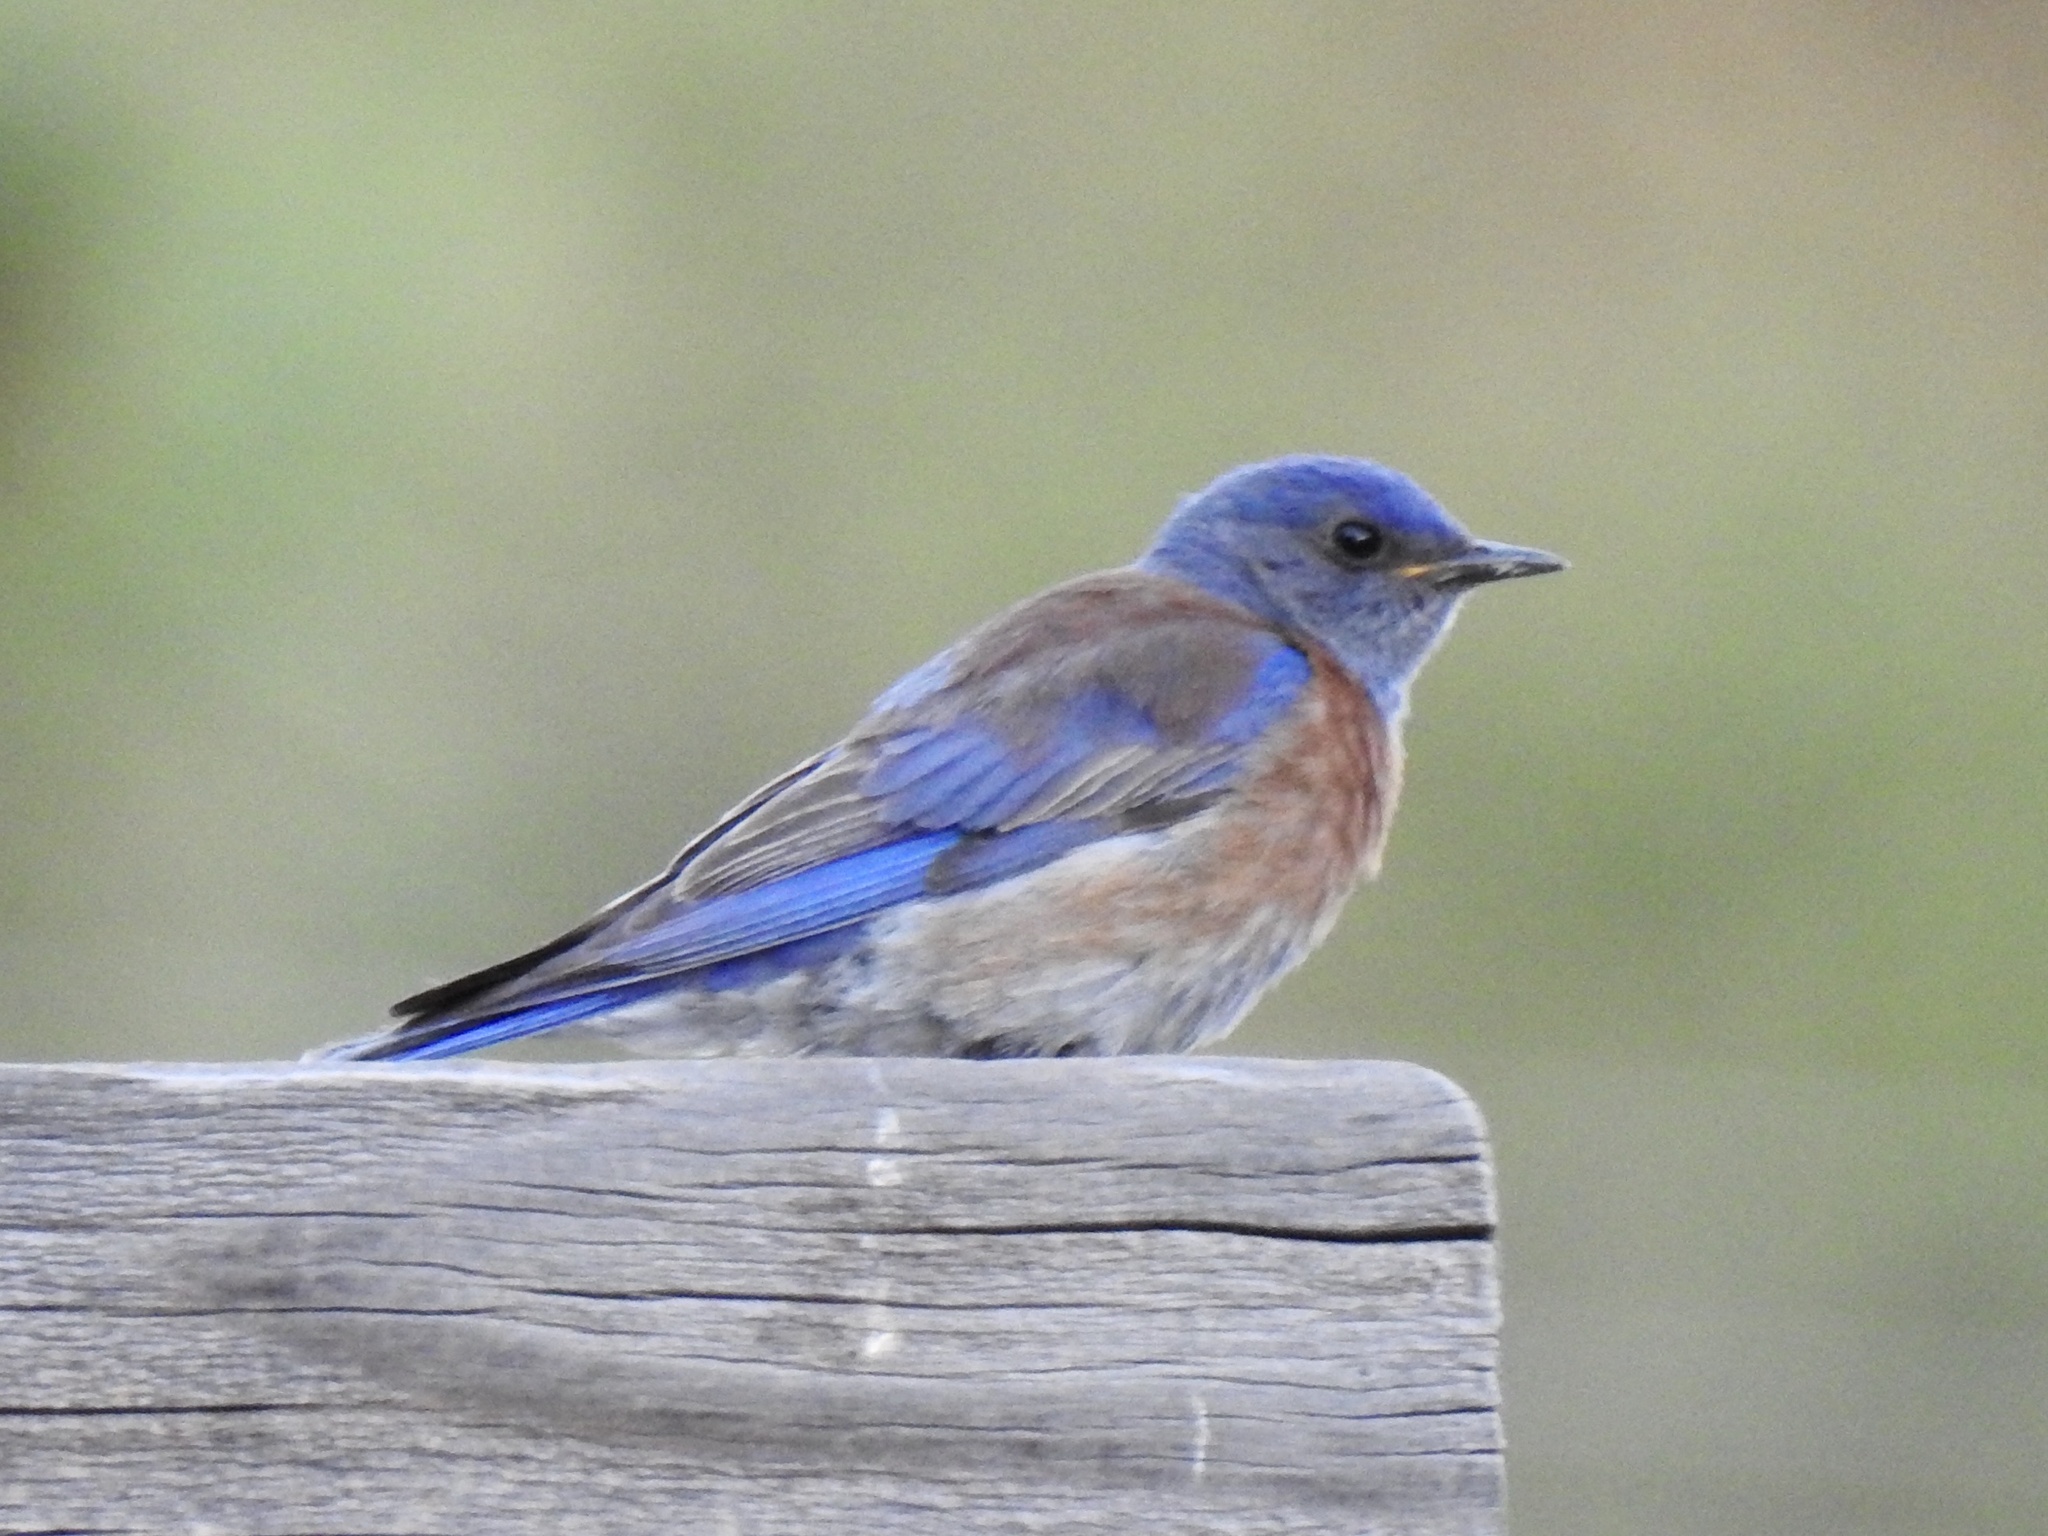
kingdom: Animalia
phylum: Chordata
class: Aves
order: Passeriformes
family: Turdidae
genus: Sialia
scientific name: Sialia mexicana
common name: Western bluebird
